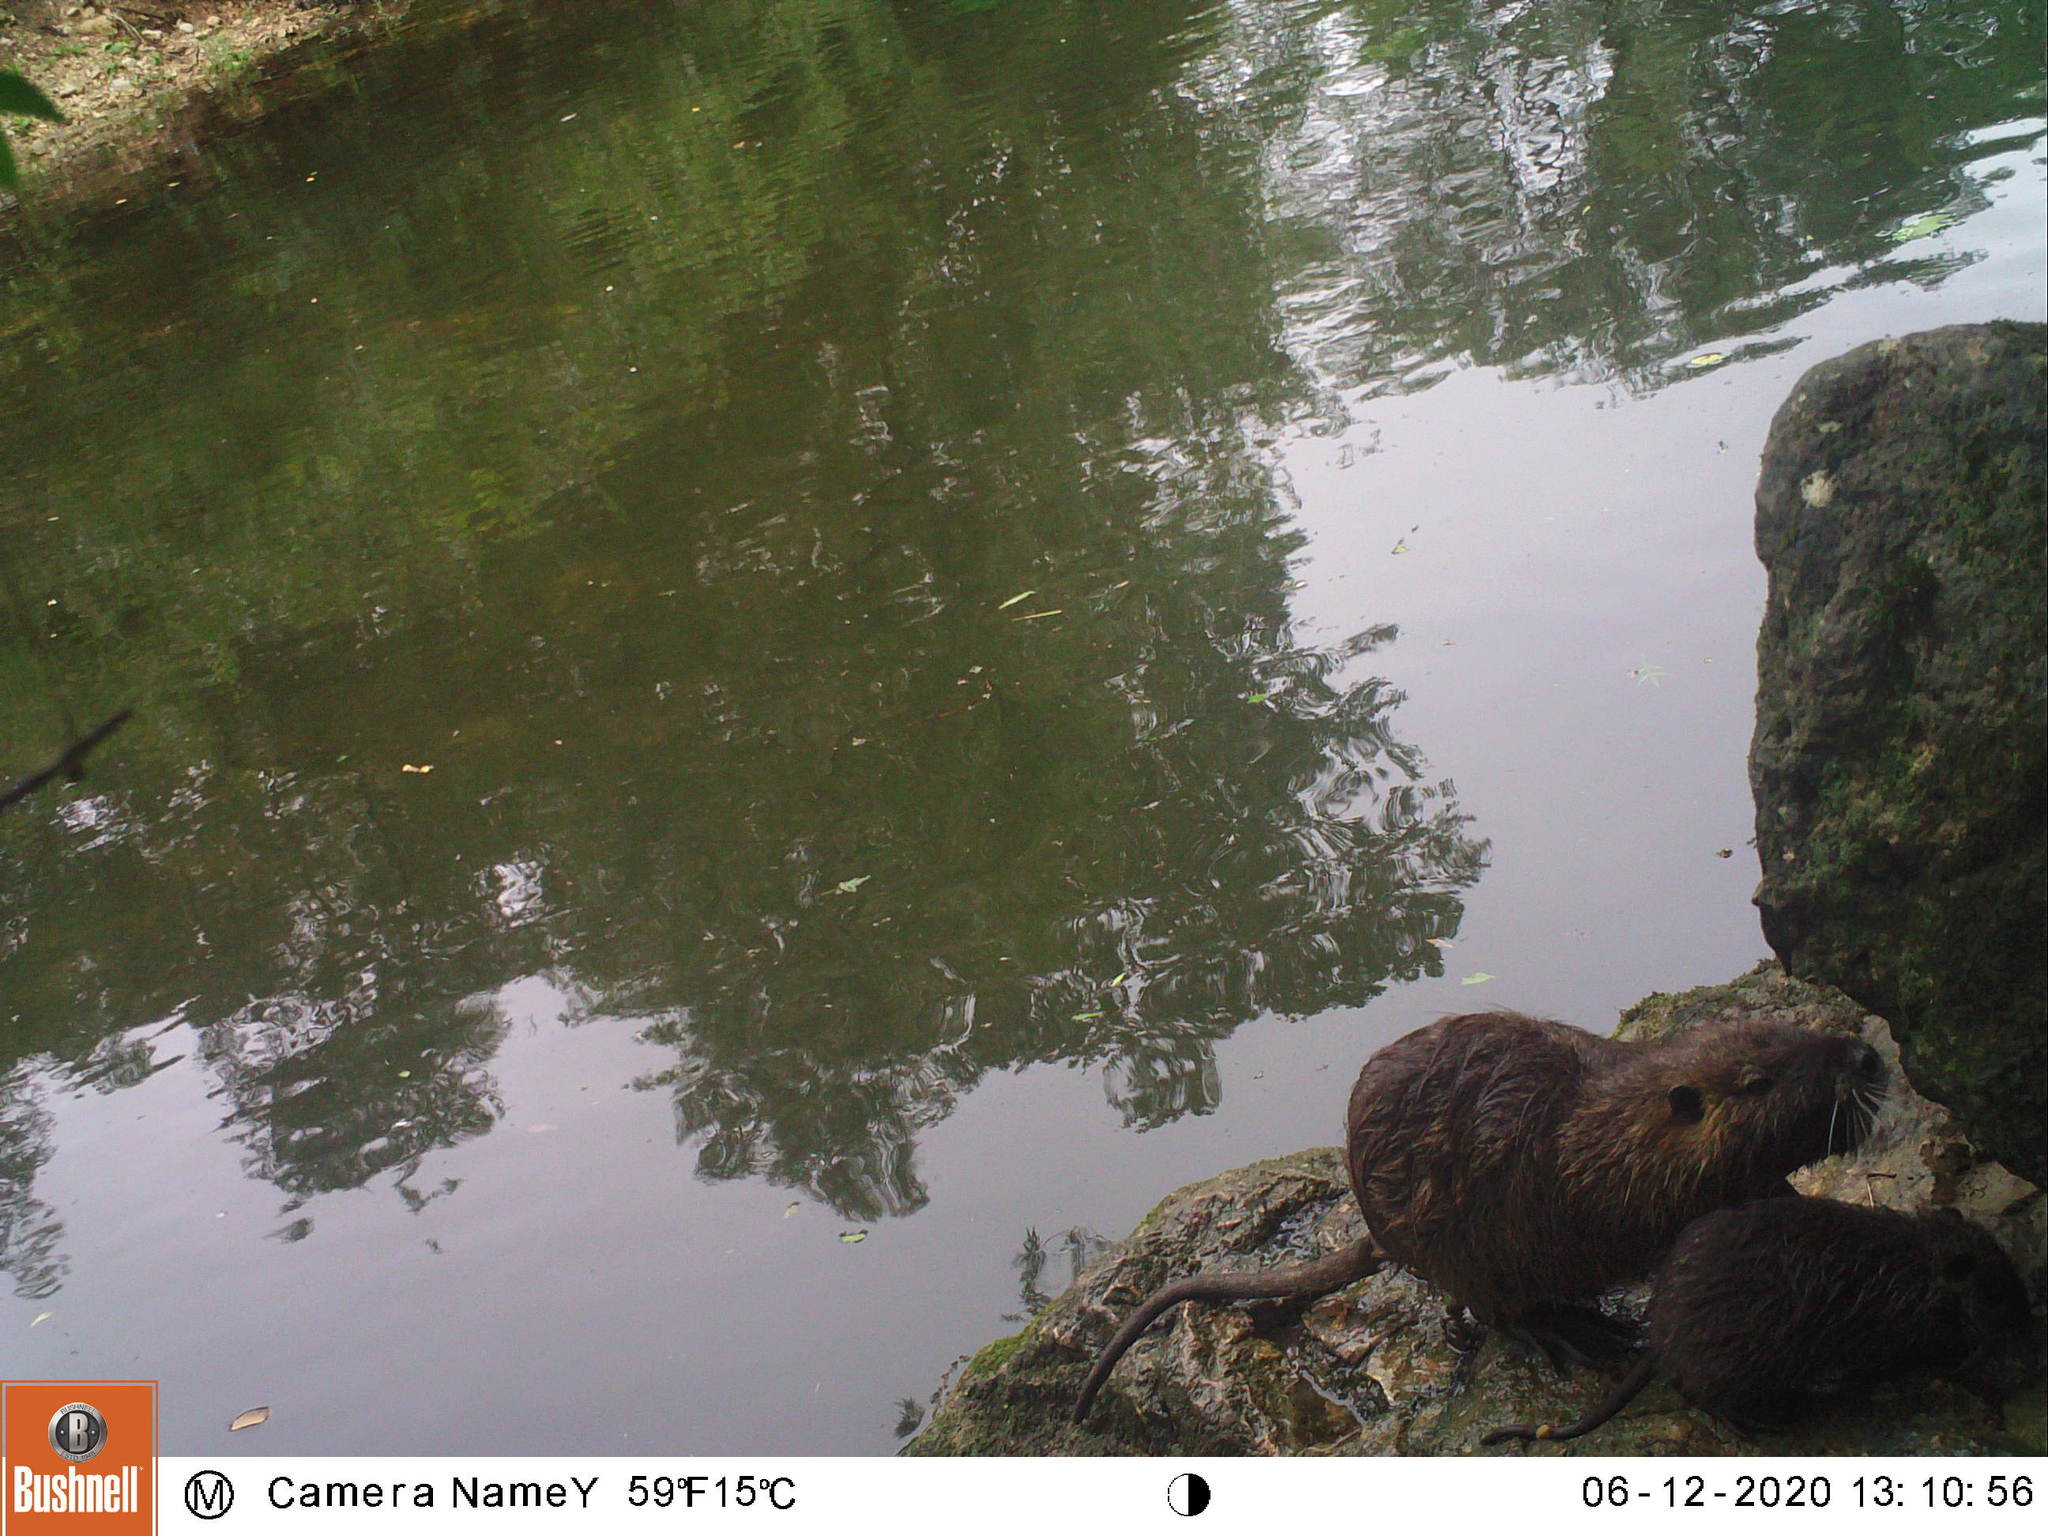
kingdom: Animalia
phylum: Chordata
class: Mammalia
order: Rodentia
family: Myocastoridae
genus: Myocastor
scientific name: Myocastor coypus
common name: Coypu
